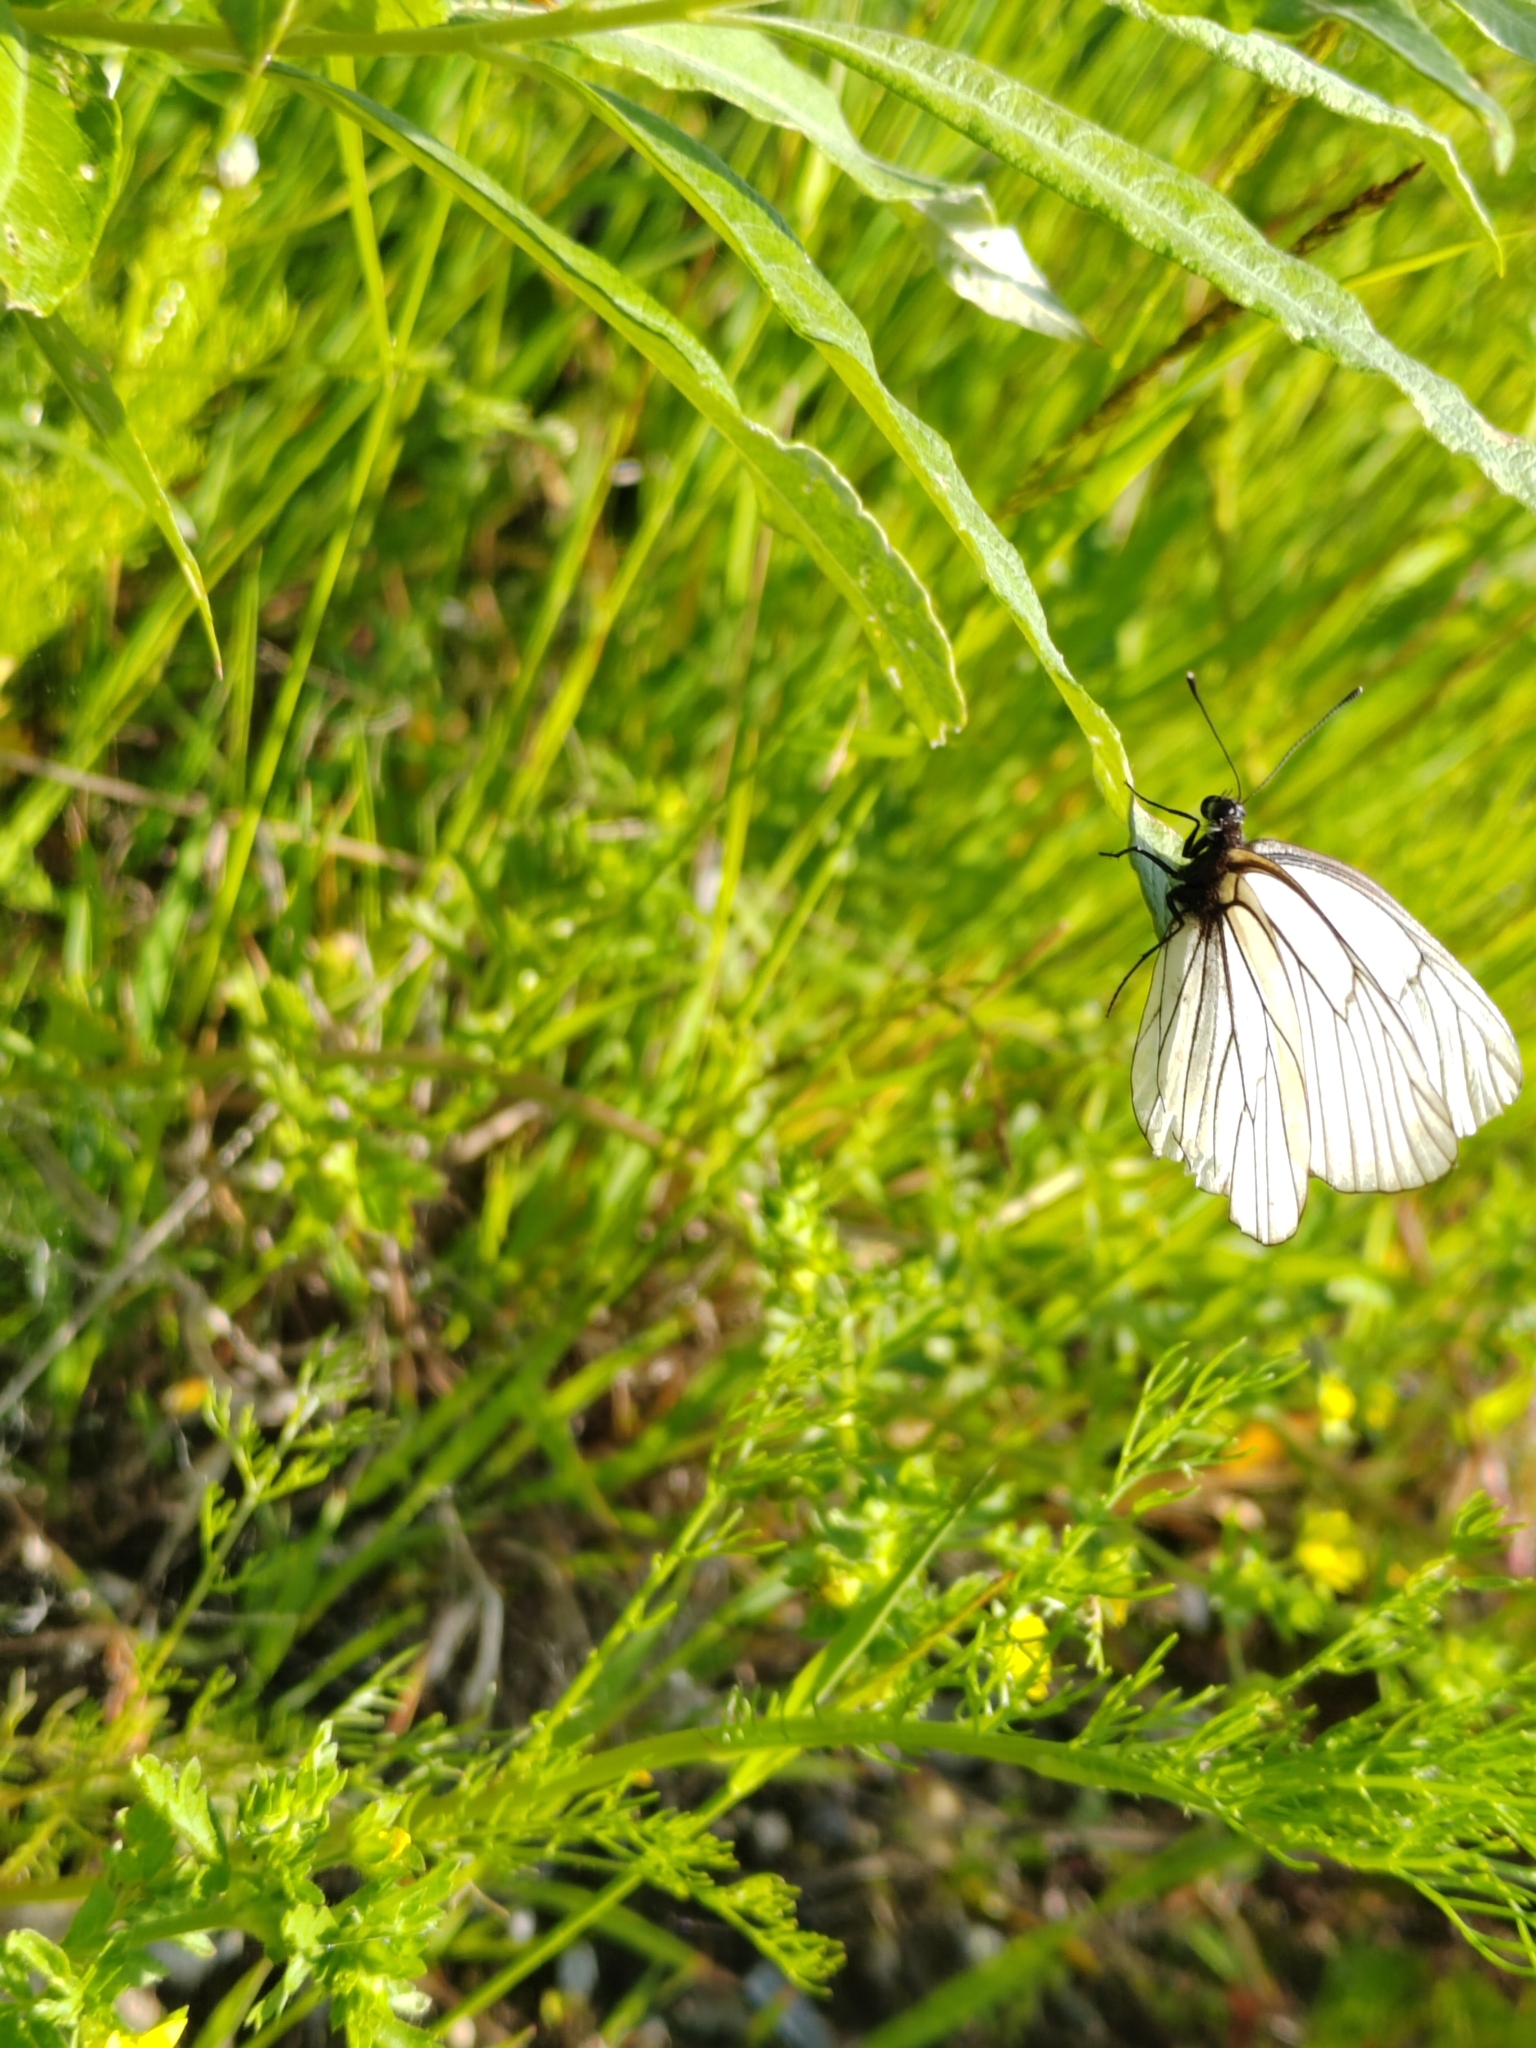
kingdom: Animalia
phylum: Arthropoda
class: Insecta
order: Lepidoptera
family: Pieridae
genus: Aporia
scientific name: Aporia crataegi
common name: Black-veined white
